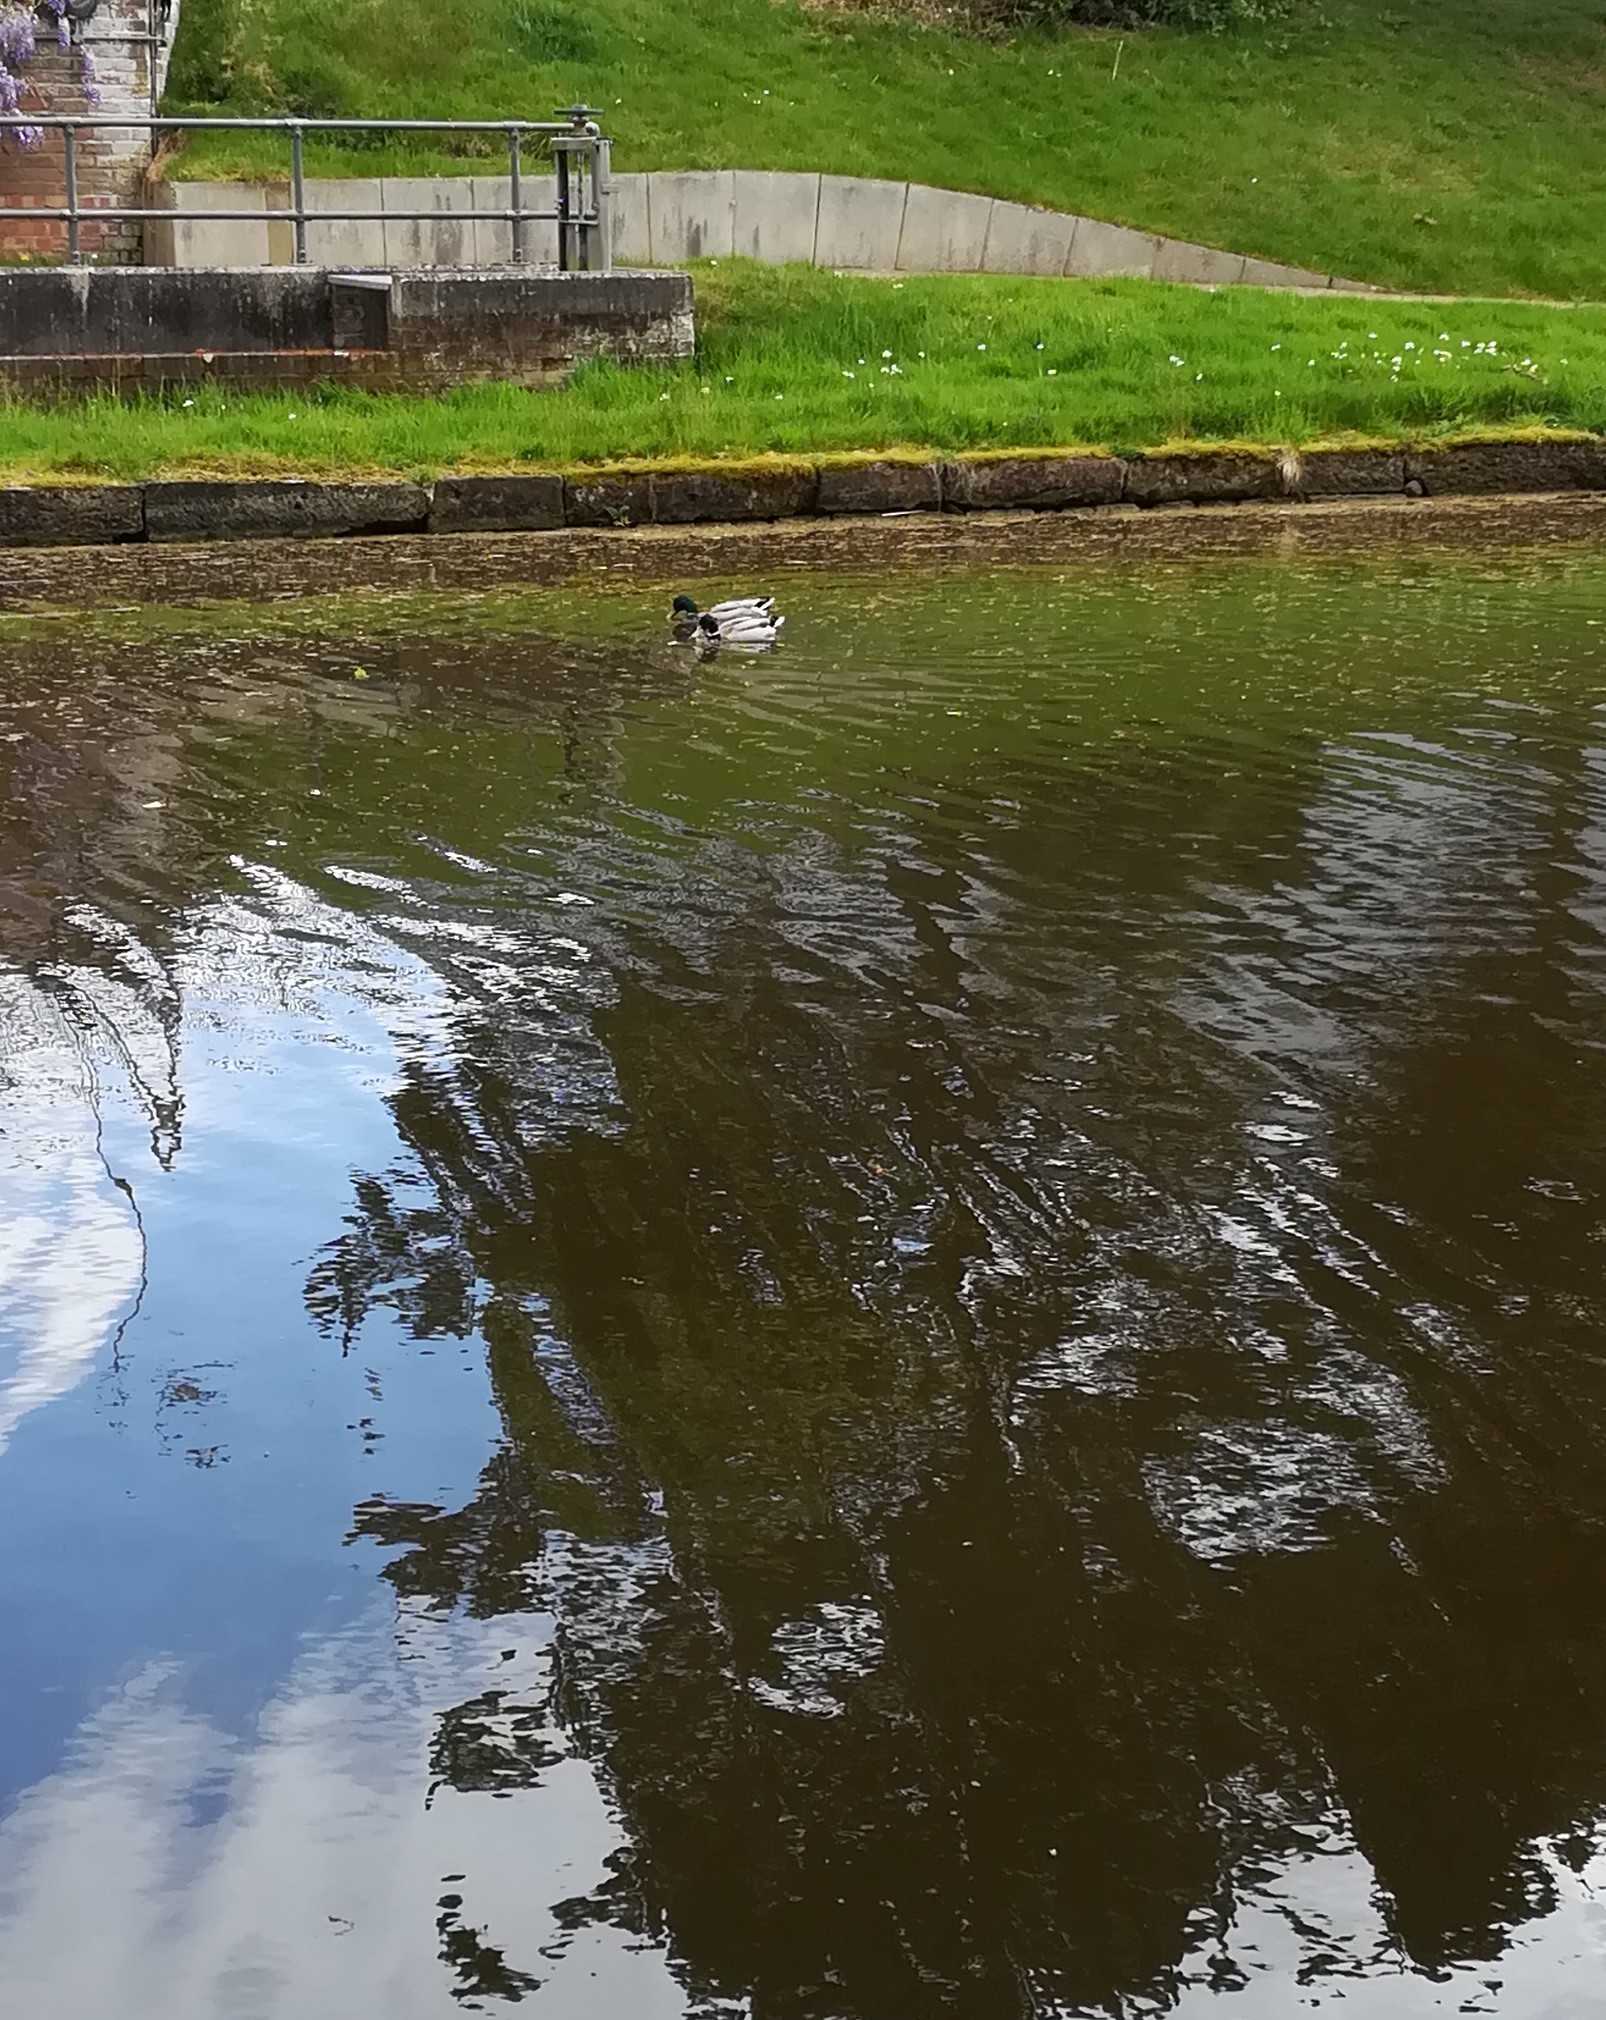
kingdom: Animalia
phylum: Chordata
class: Aves
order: Anseriformes
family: Anatidae
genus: Anas
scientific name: Anas platyrhynchos
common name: Mallard
